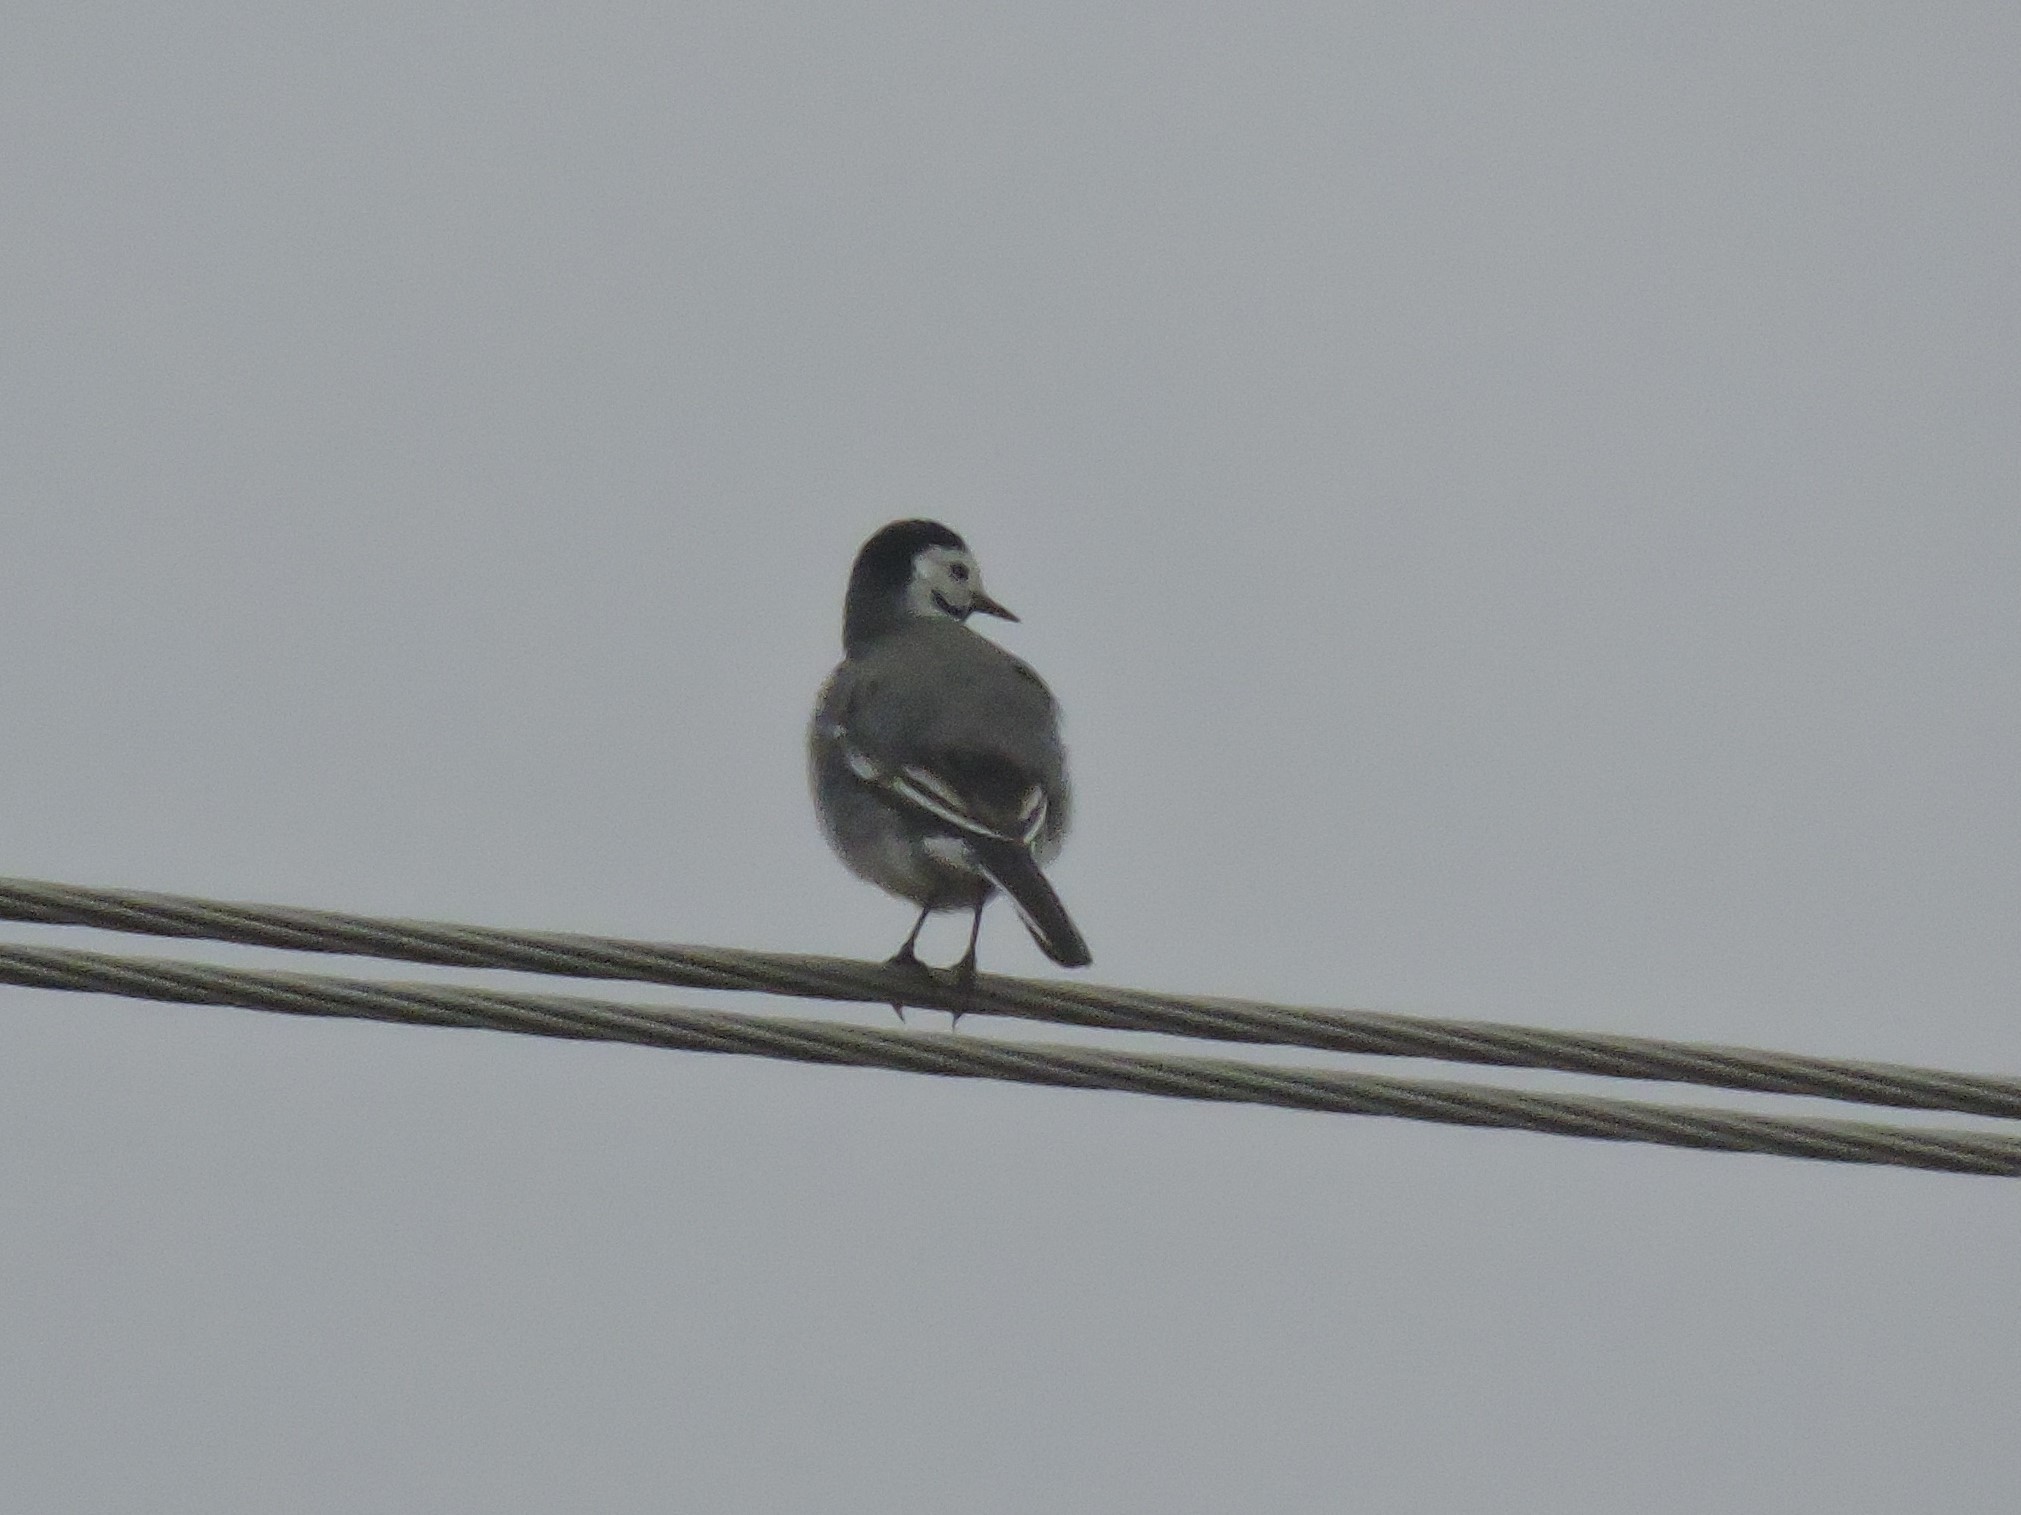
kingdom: Animalia
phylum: Chordata
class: Aves
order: Passeriformes
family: Motacillidae
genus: Motacilla
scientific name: Motacilla alba
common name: White wagtail
